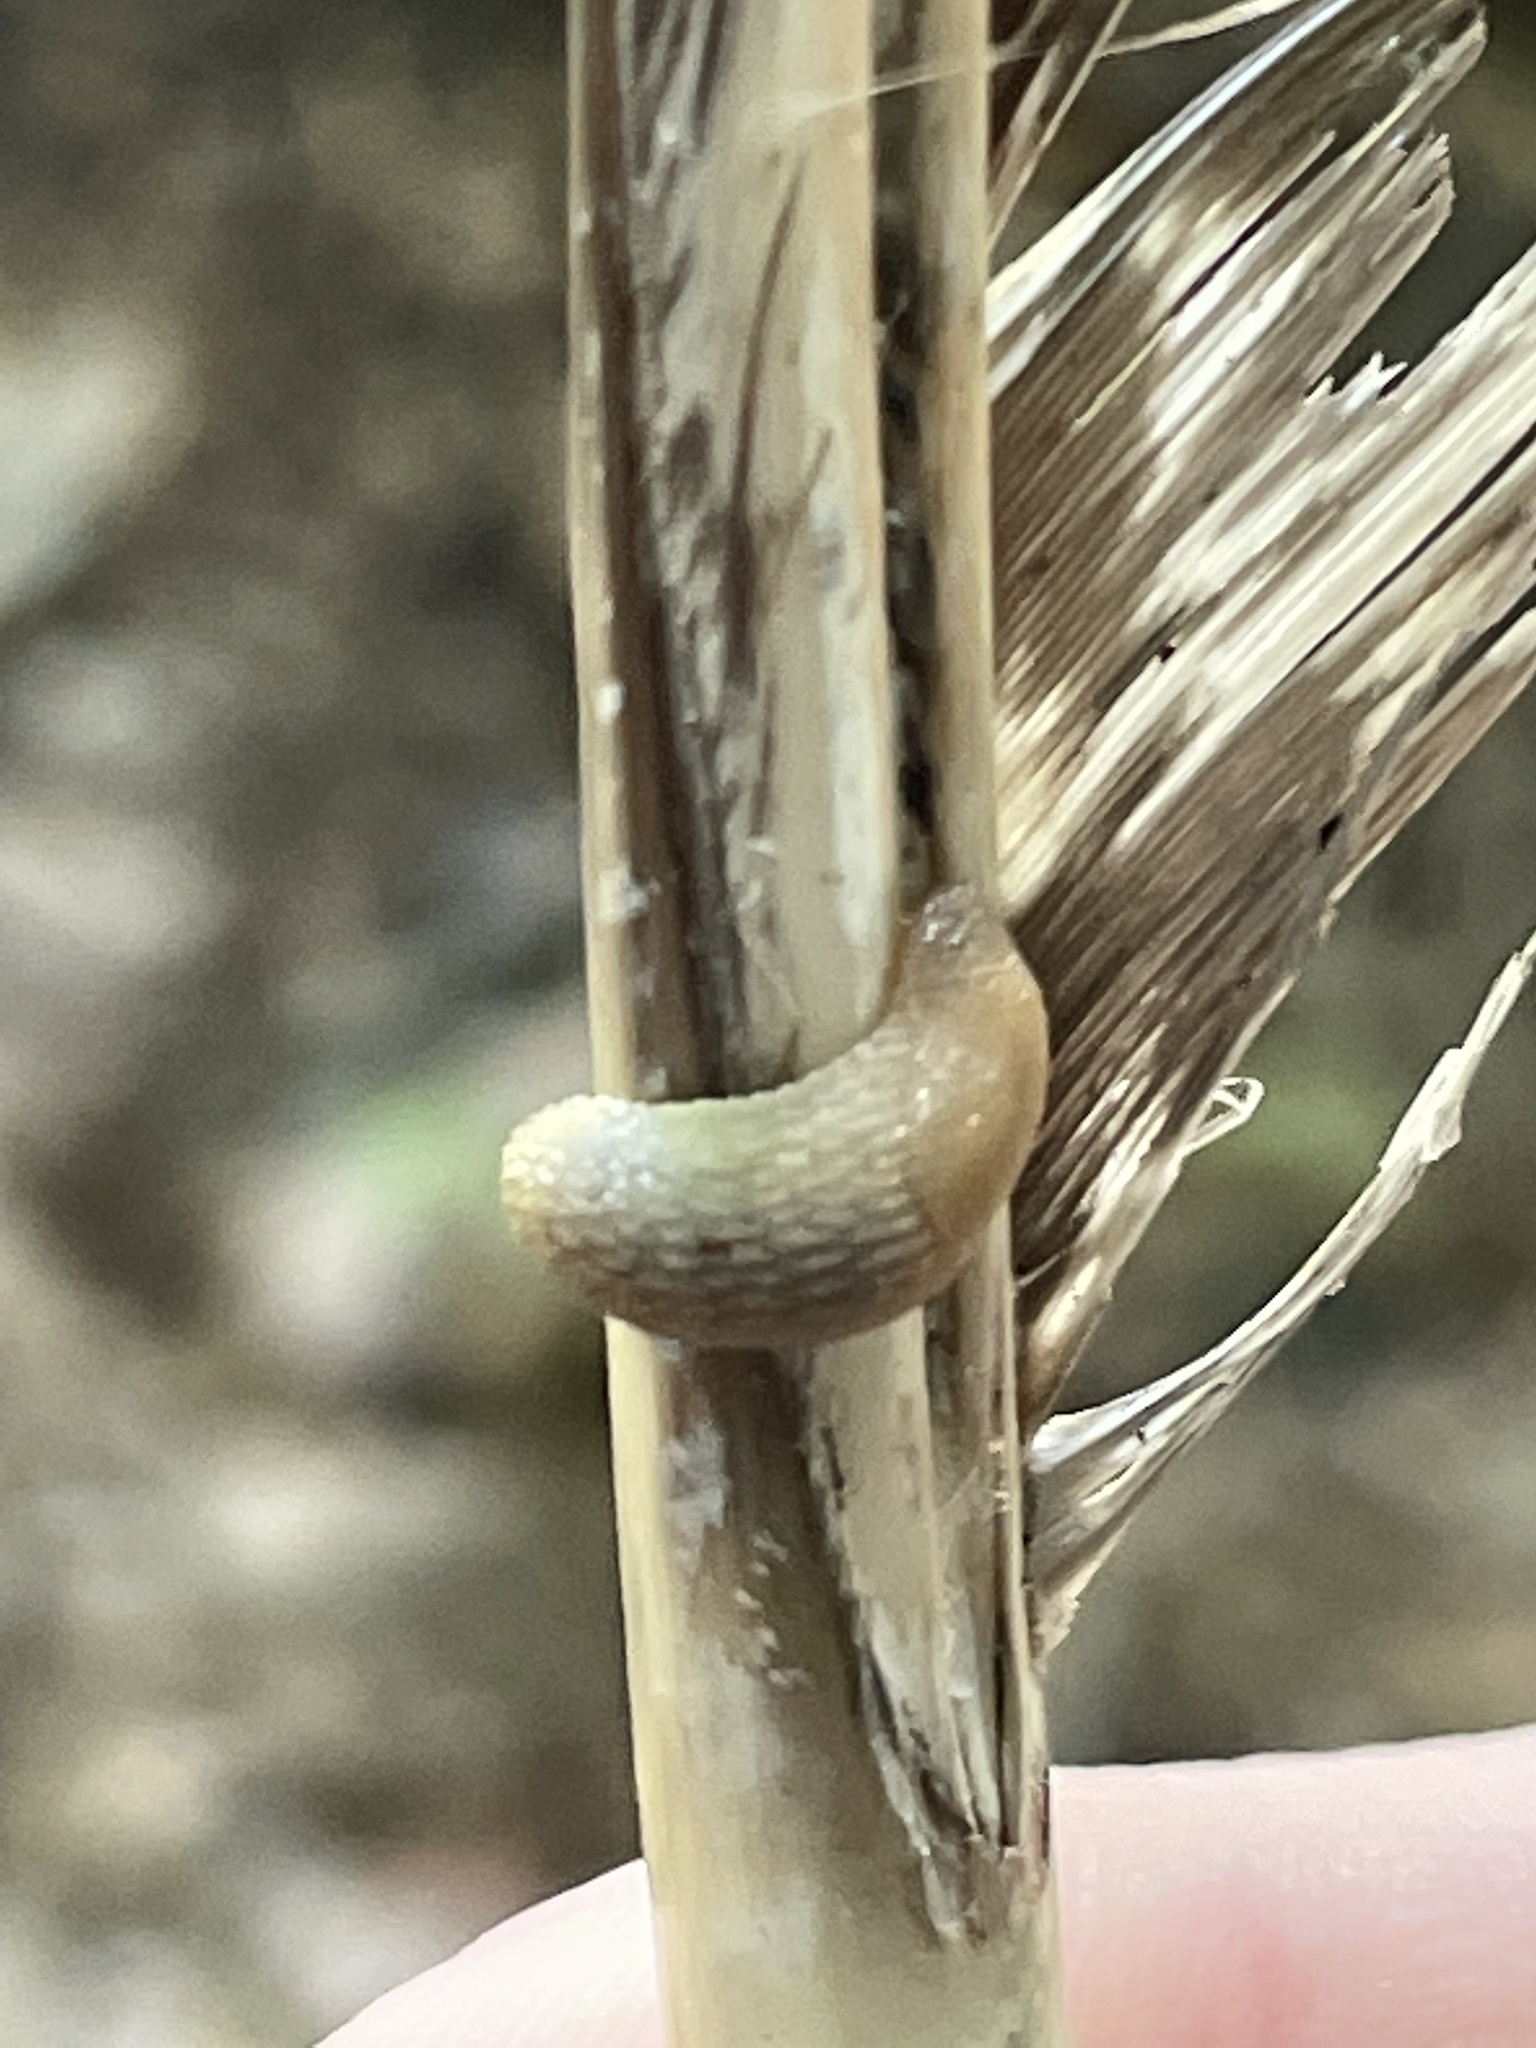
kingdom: Animalia
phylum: Mollusca
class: Gastropoda
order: Stylommatophora
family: Arionidae
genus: Arion
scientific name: Arion intermedius
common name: Hedgehog slug
